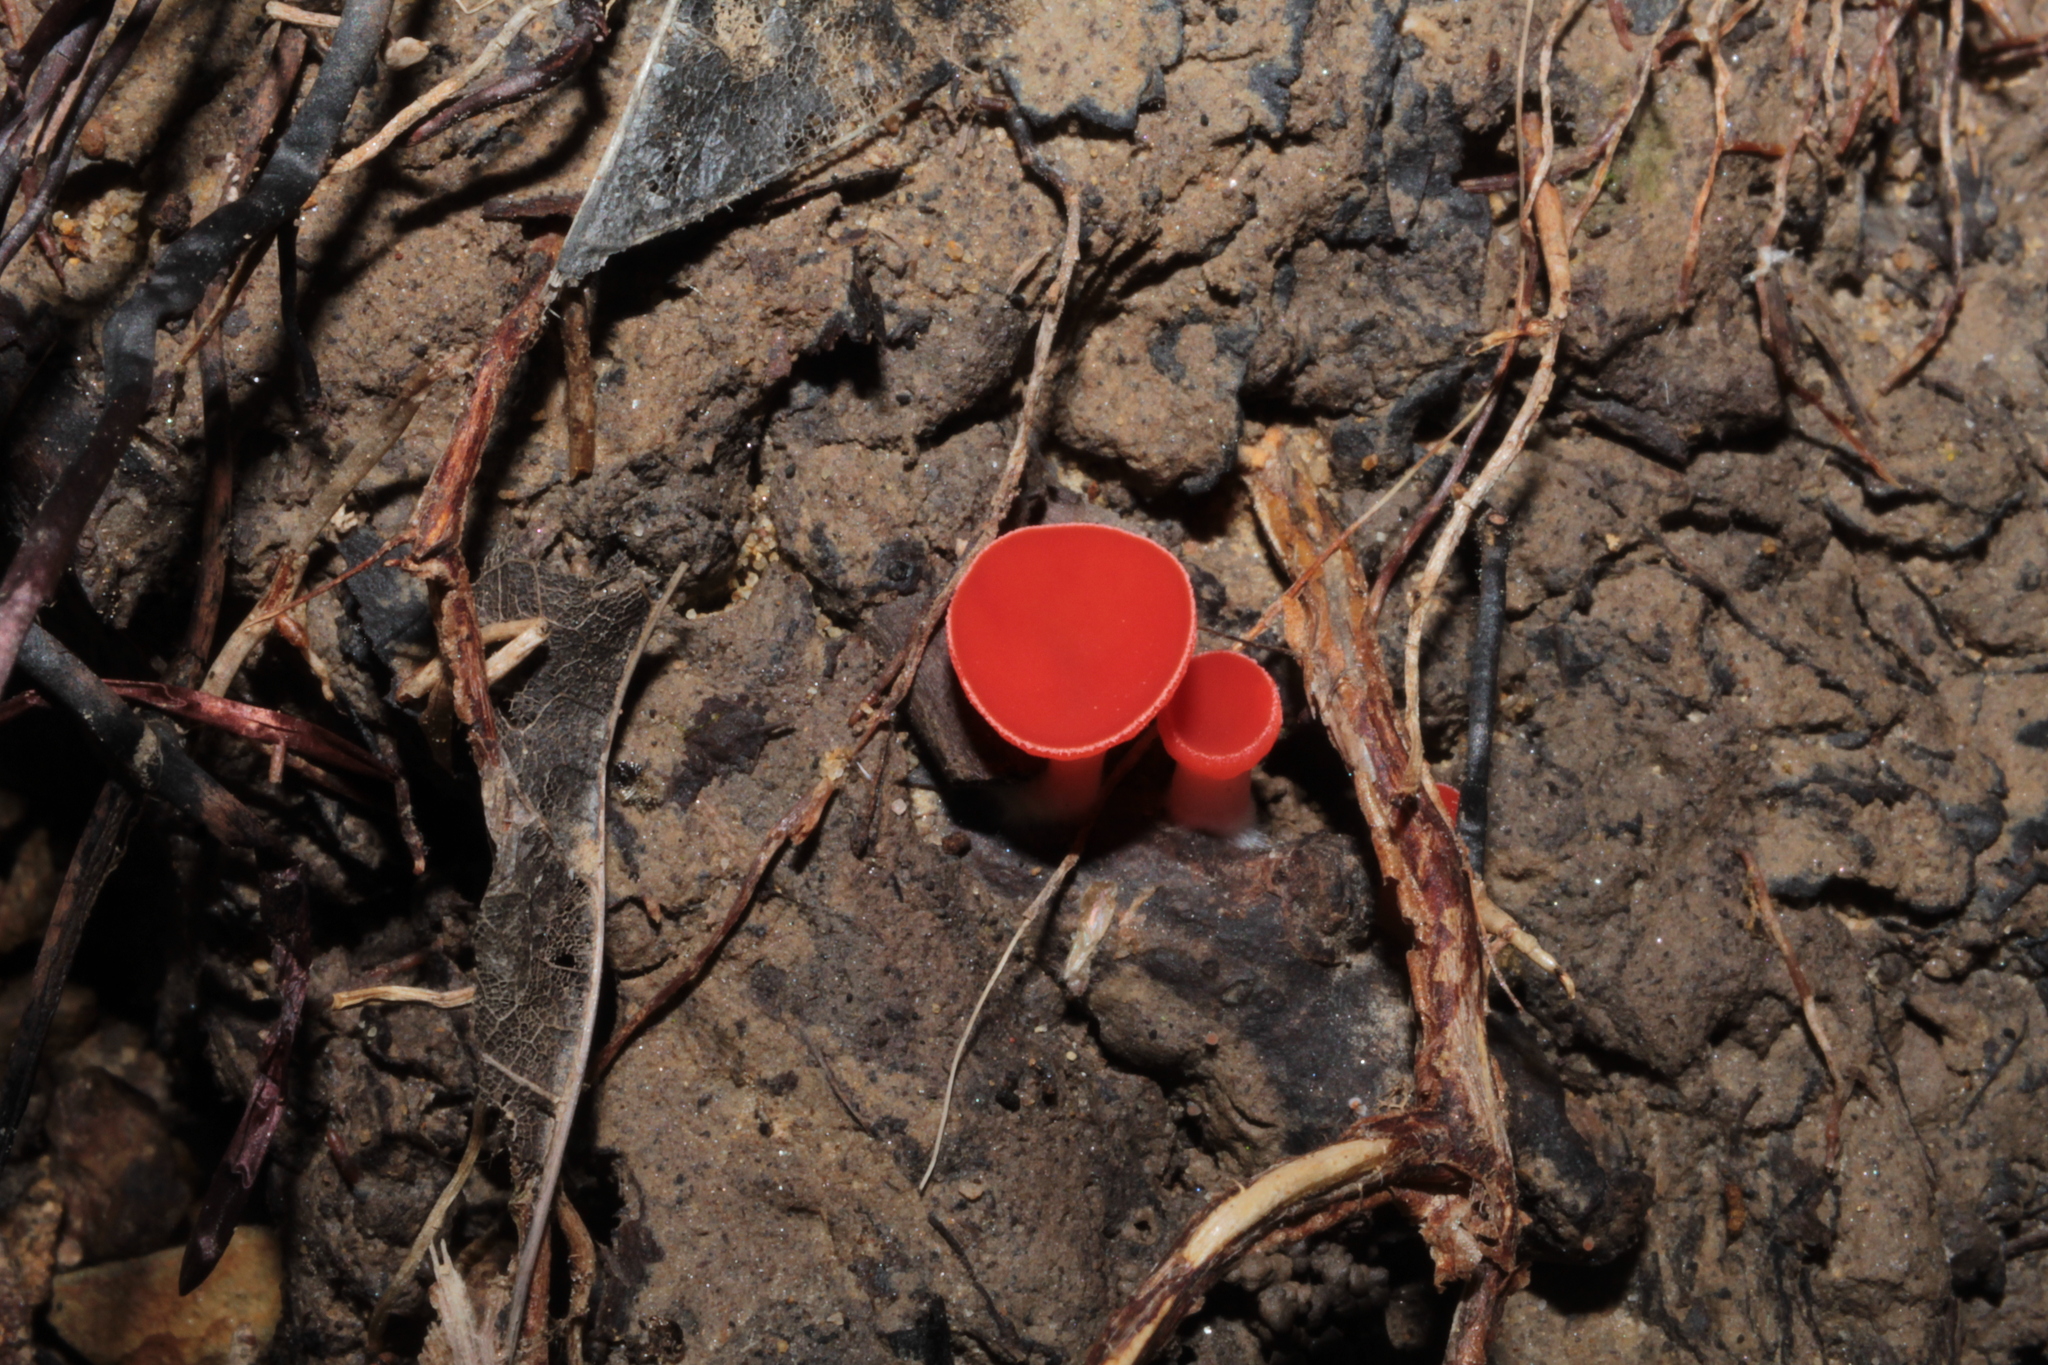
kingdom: Fungi
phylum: Ascomycota
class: Pezizomycetes
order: Pezizales
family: Sarcoscyphaceae
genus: Sarcoscypha
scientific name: Sarcoscypha occidentalis
